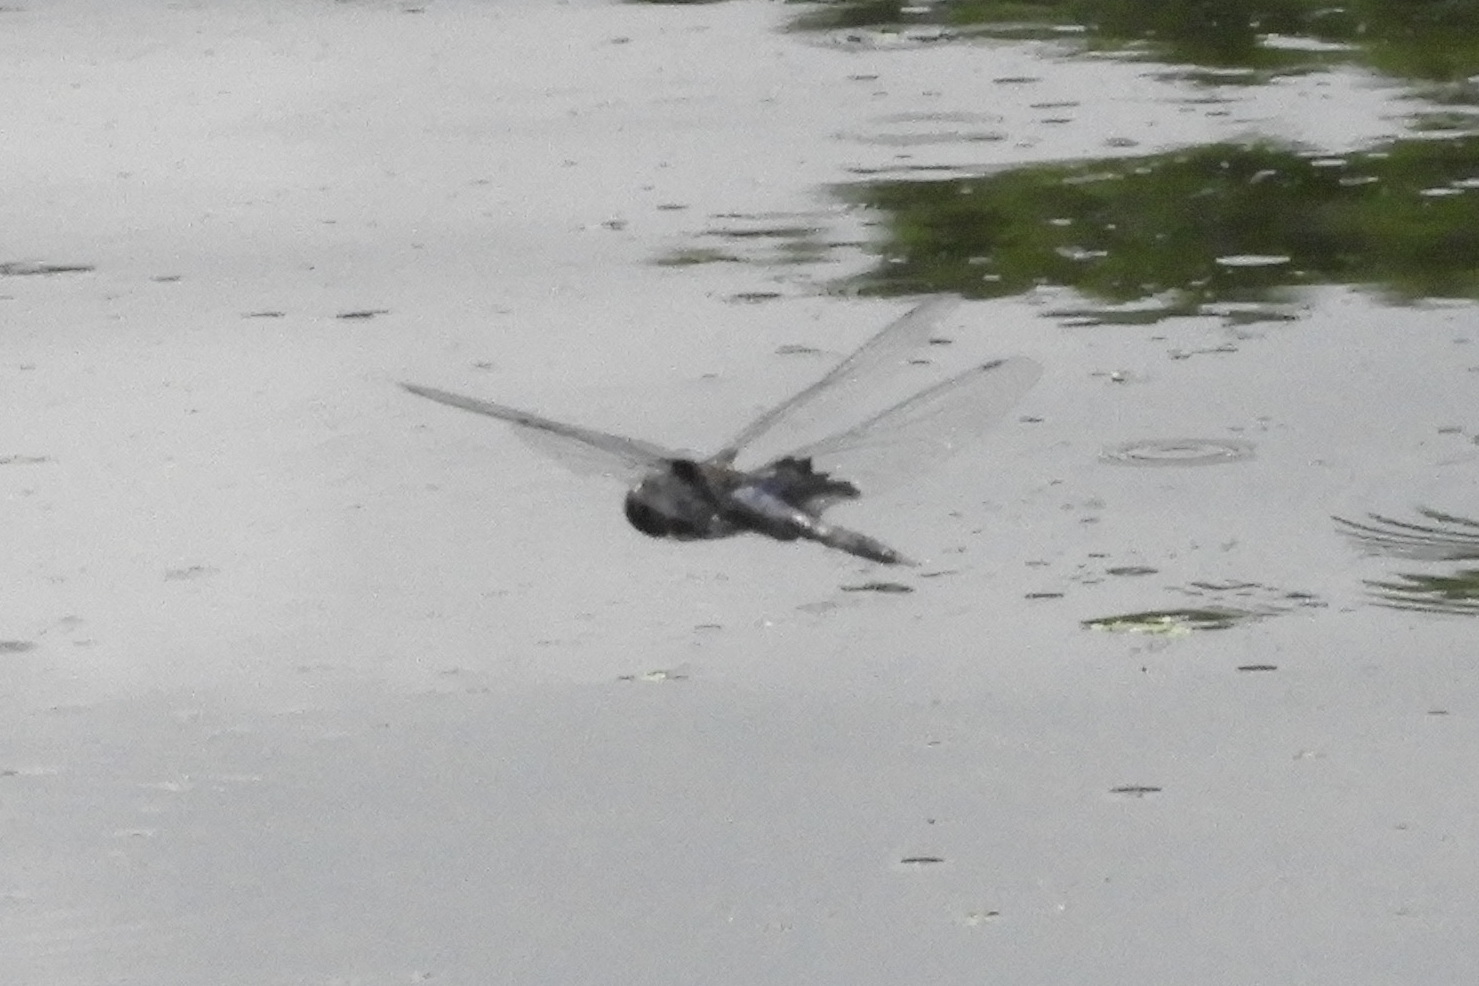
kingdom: Animalia
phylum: Arthropoda
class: Insecta
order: Odonata
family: Libellulidae
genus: Tramea
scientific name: Tramea lacerata
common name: Black saddlebags
